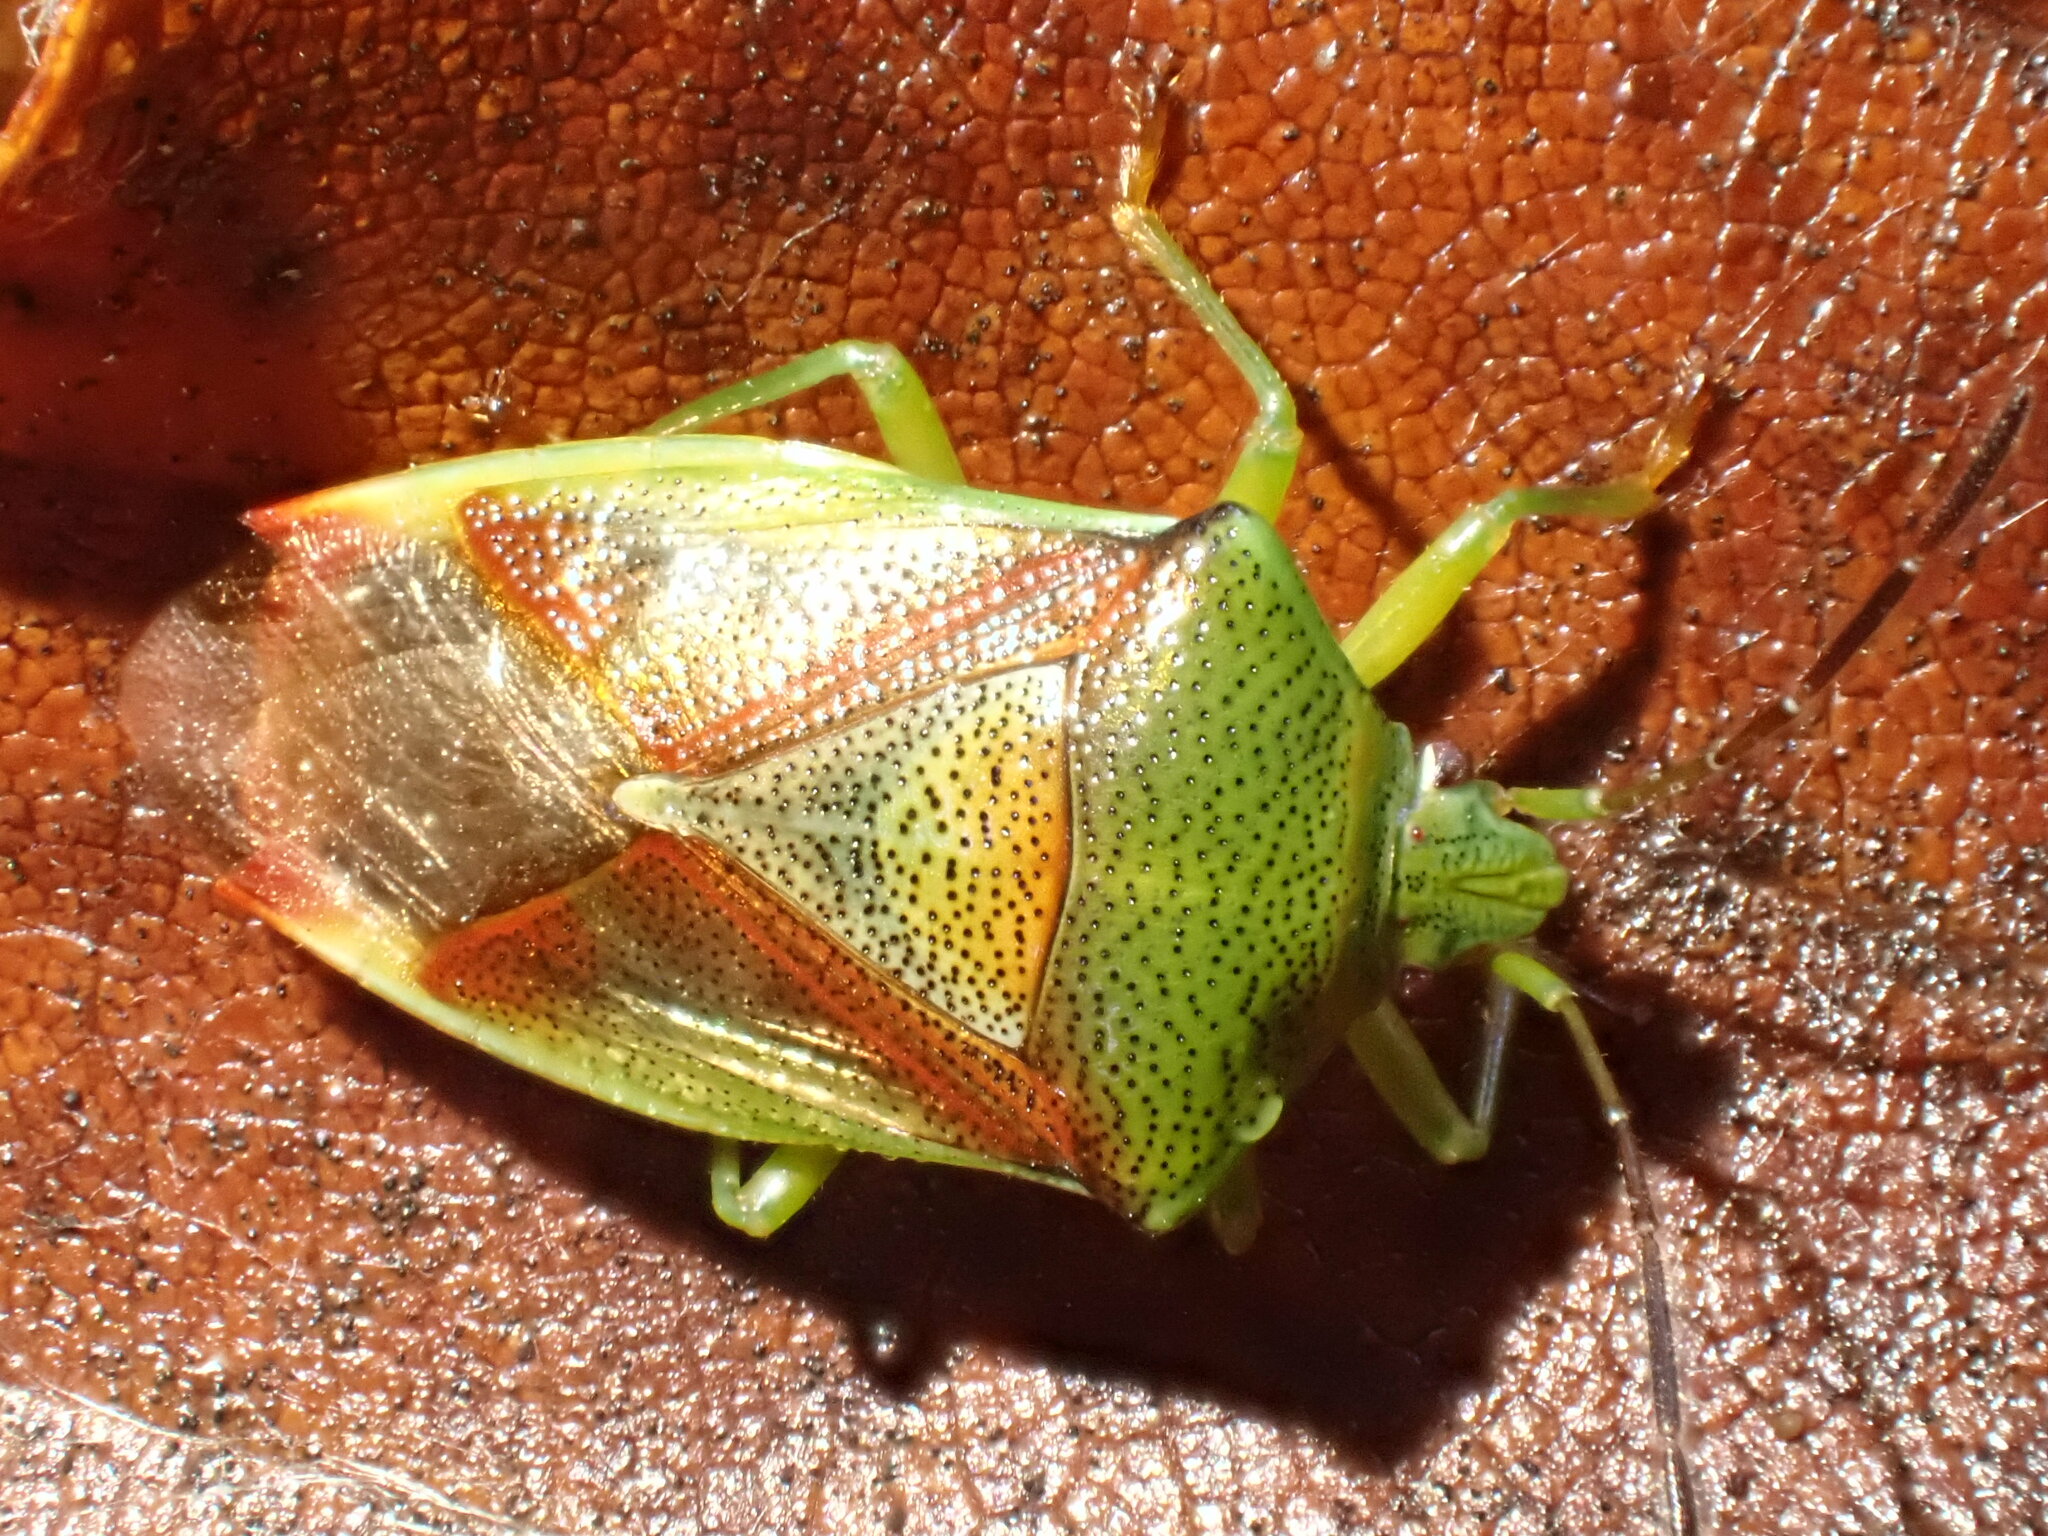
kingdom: Animalia
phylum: Arthropoda
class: Insecta
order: Hemiptera
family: Acanthosomatidae
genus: Elasmostethus
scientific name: Elasmostethus
